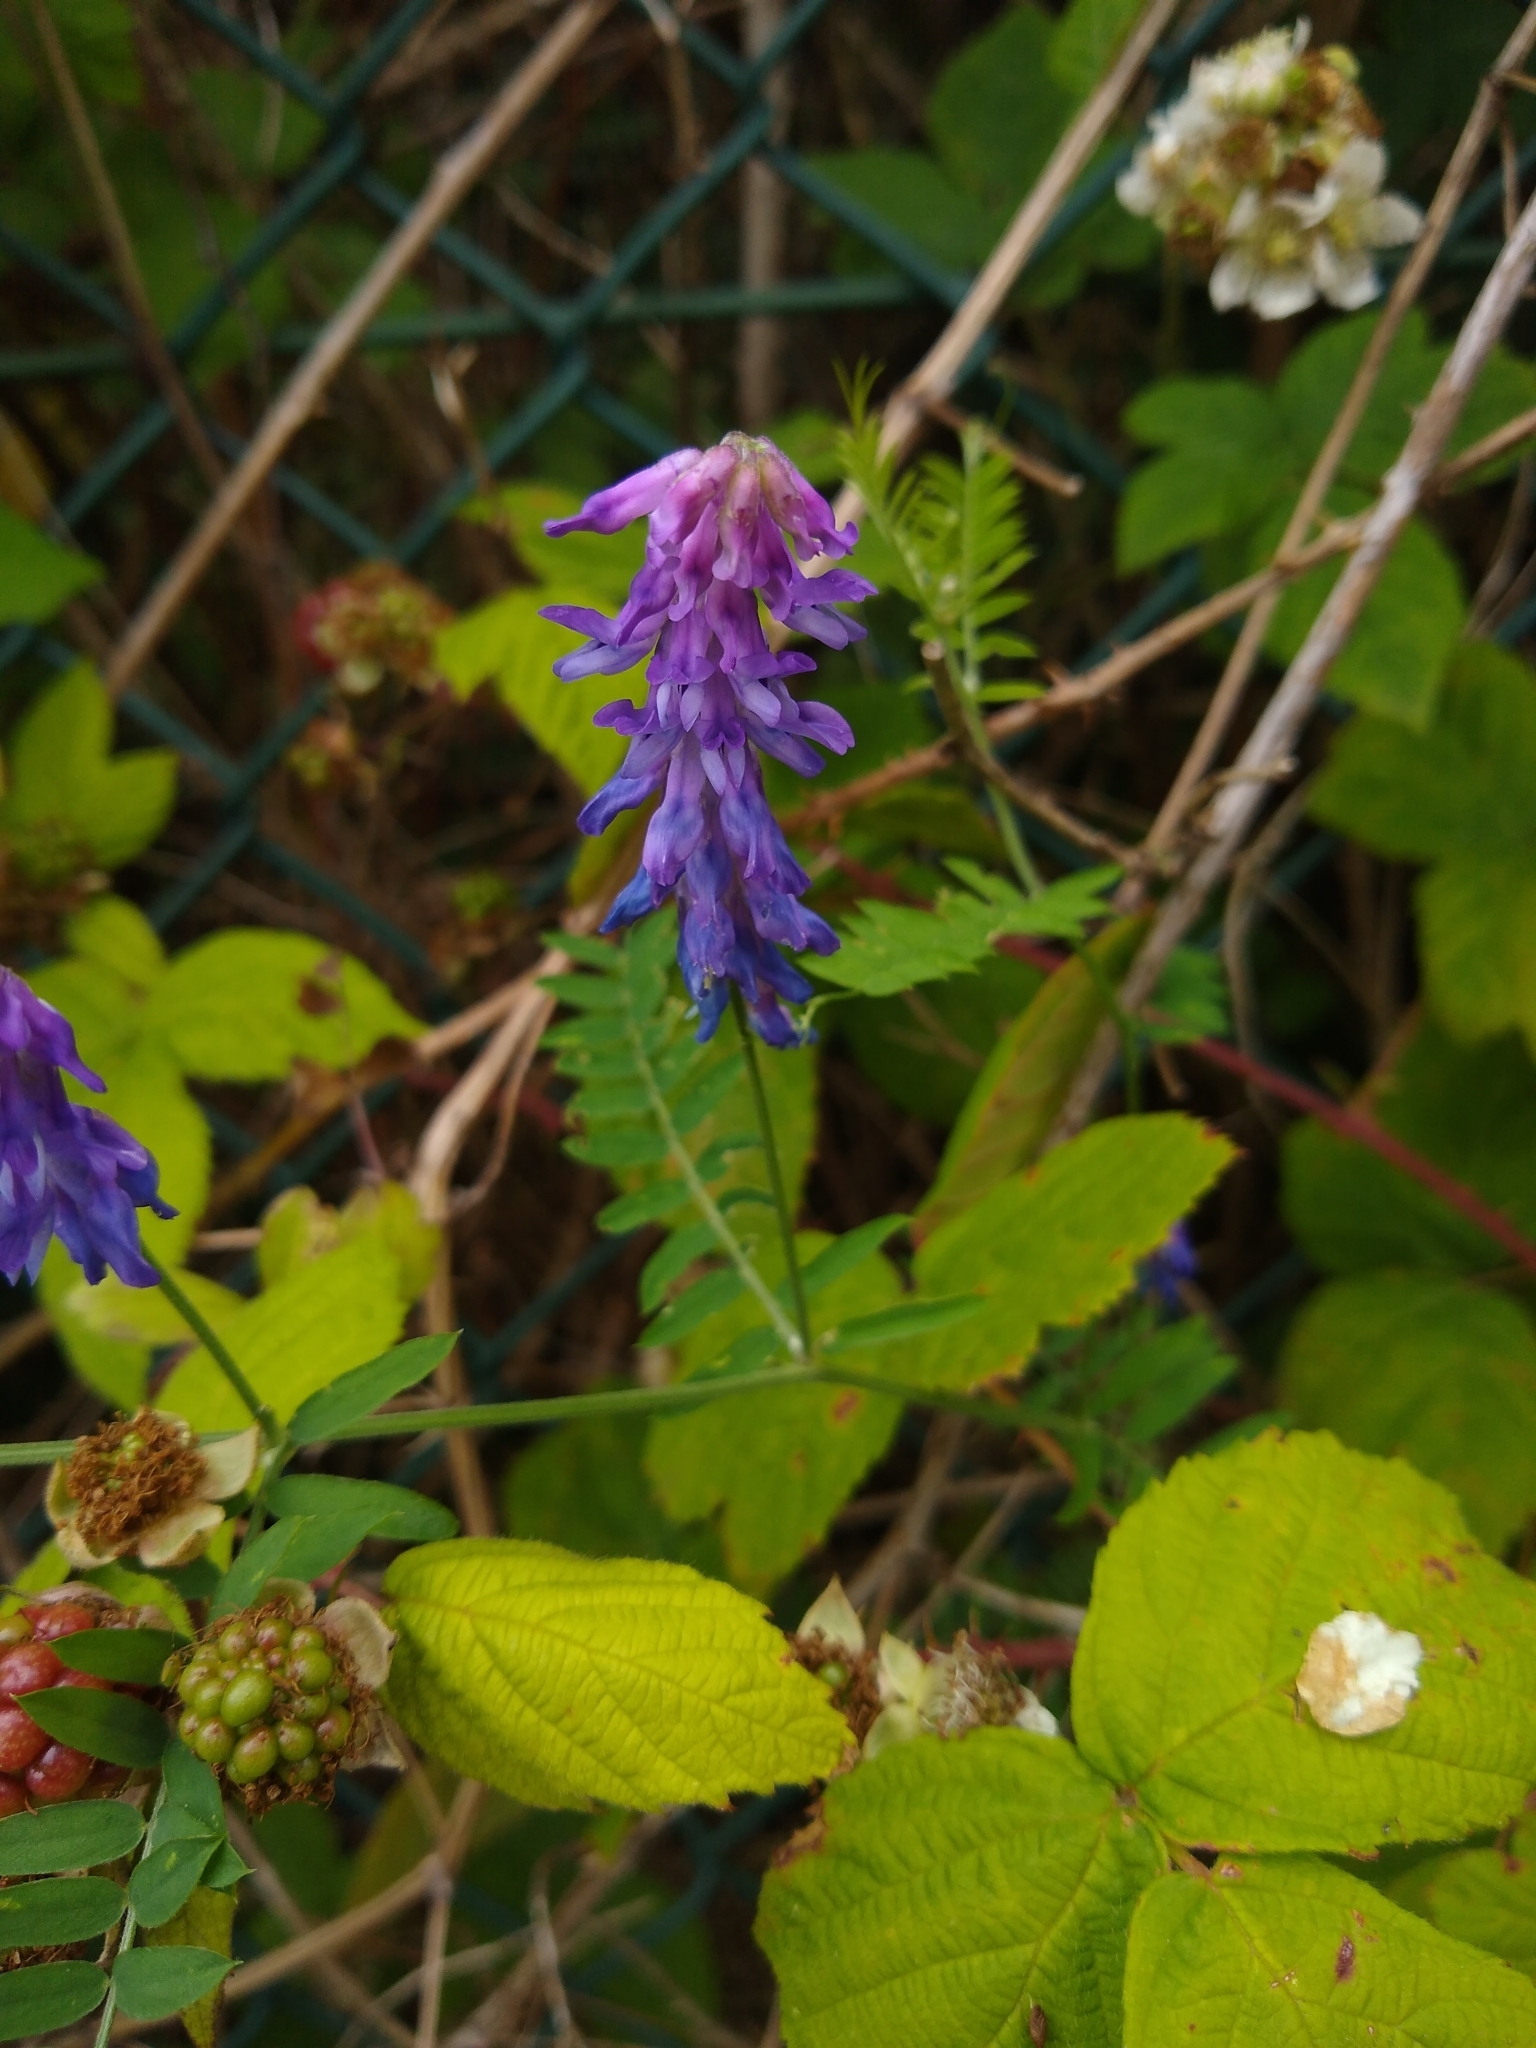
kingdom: Plantae
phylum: Tracheophyta
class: Magnoliopsida
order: Fabales
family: Fabaceae
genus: Vicia
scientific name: Vicia cracca
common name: Bird vetch
